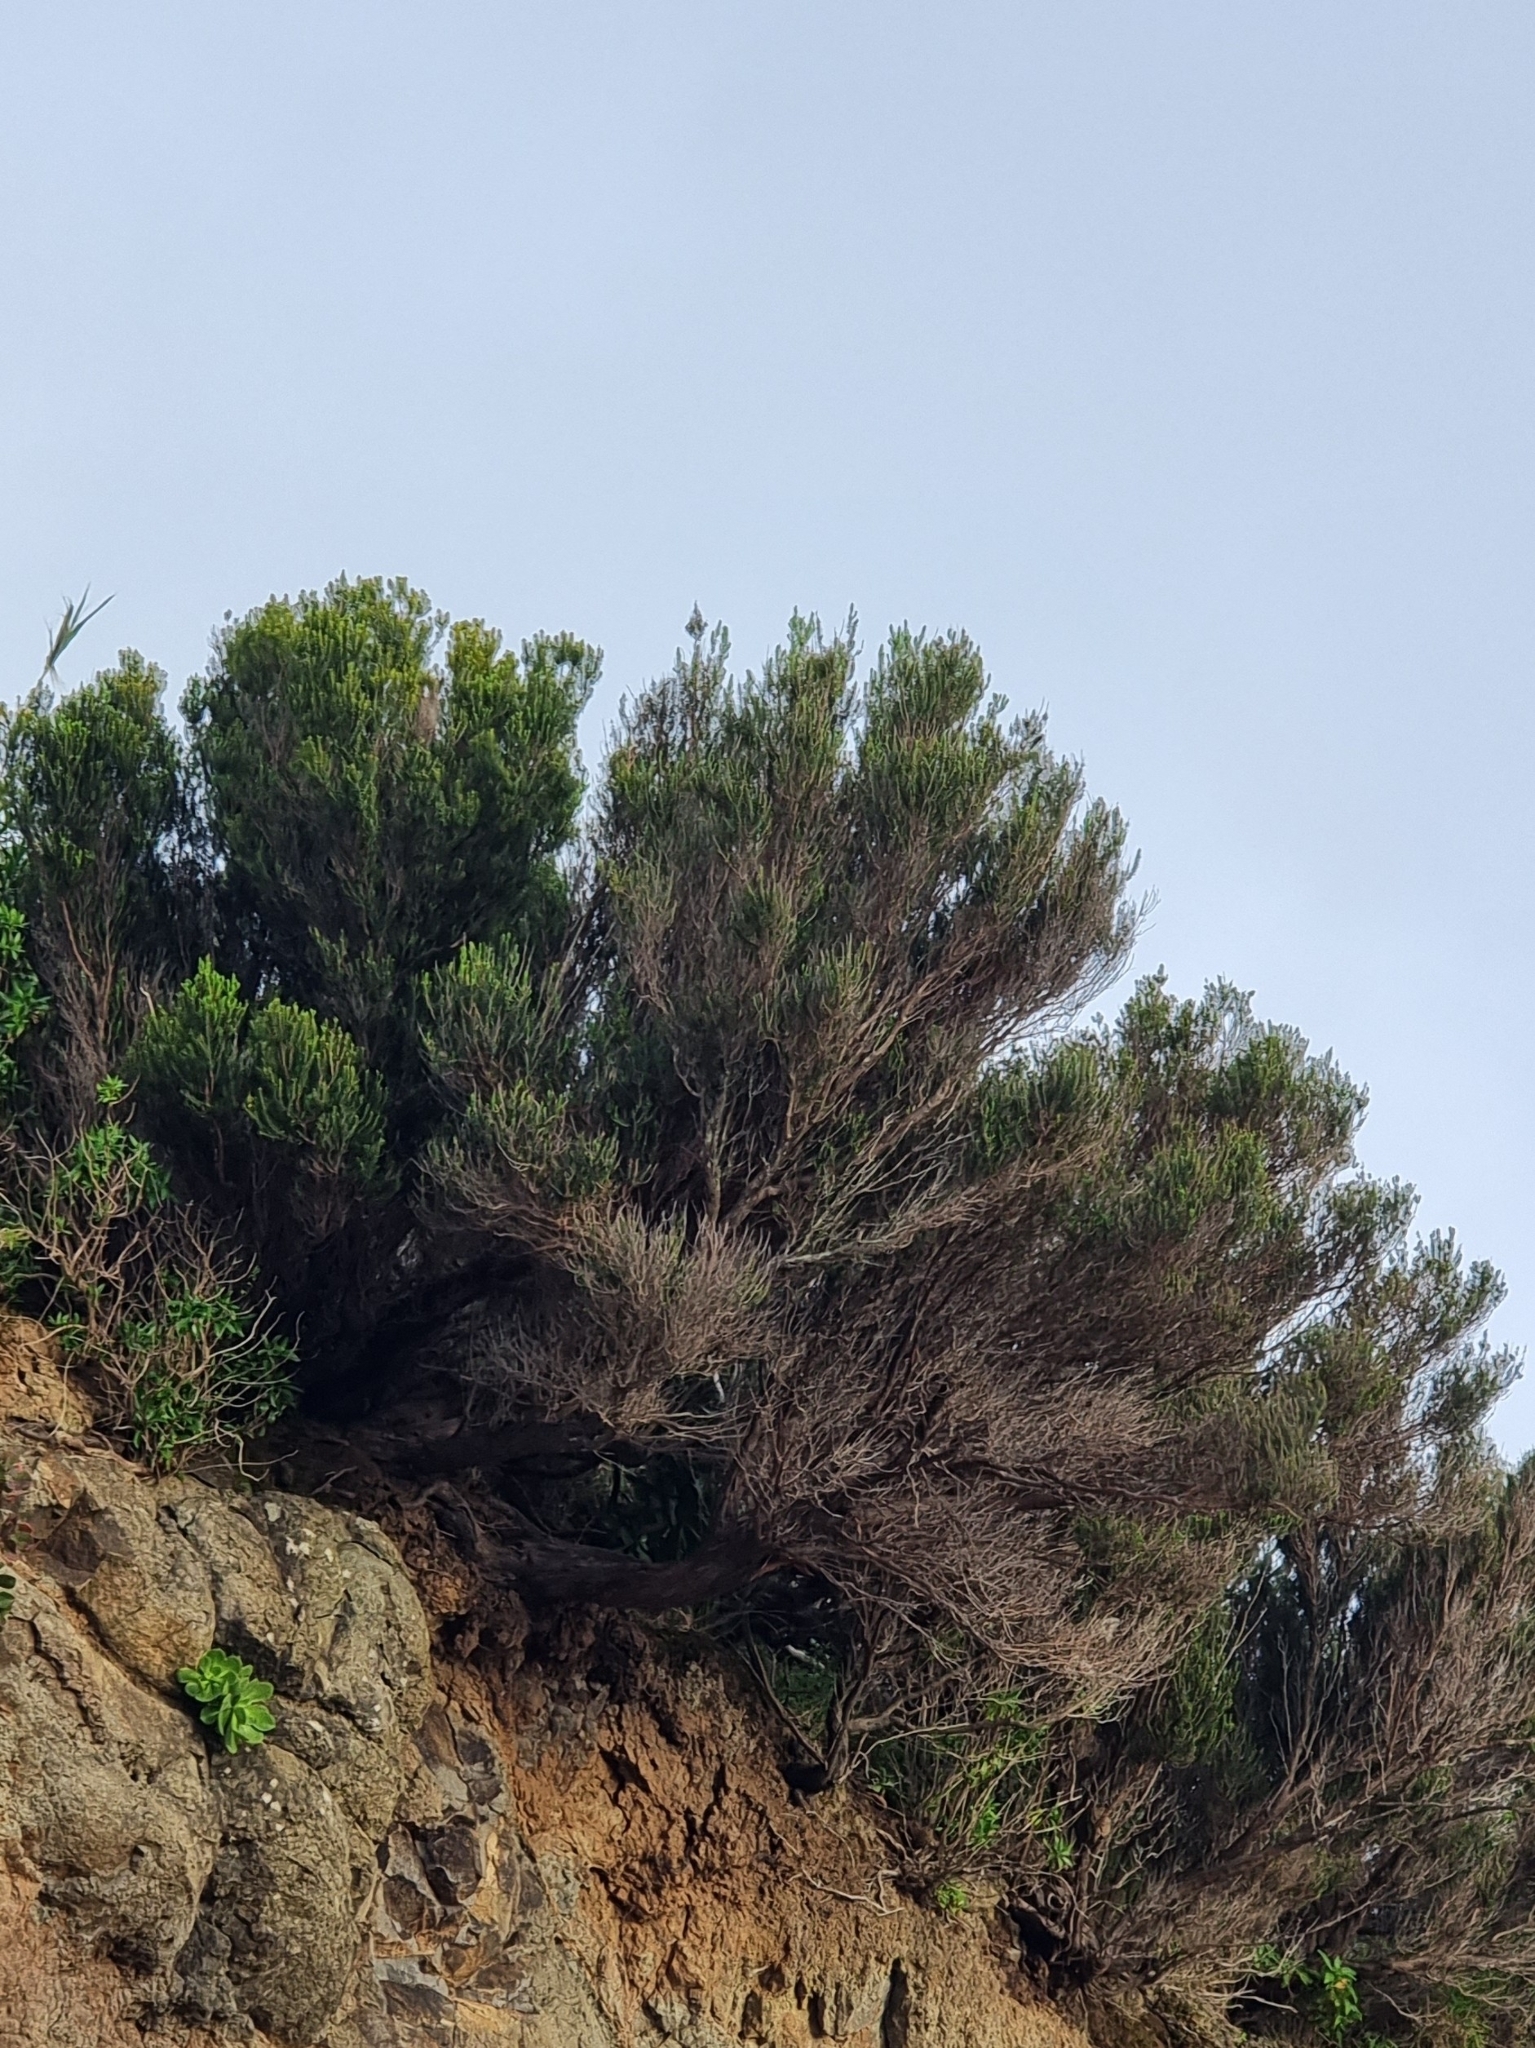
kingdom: Plantae
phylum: Tracheophyta
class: Magnoliopsida
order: Ericales
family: Ericaceae
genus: Erica
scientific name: Erica platycodon
